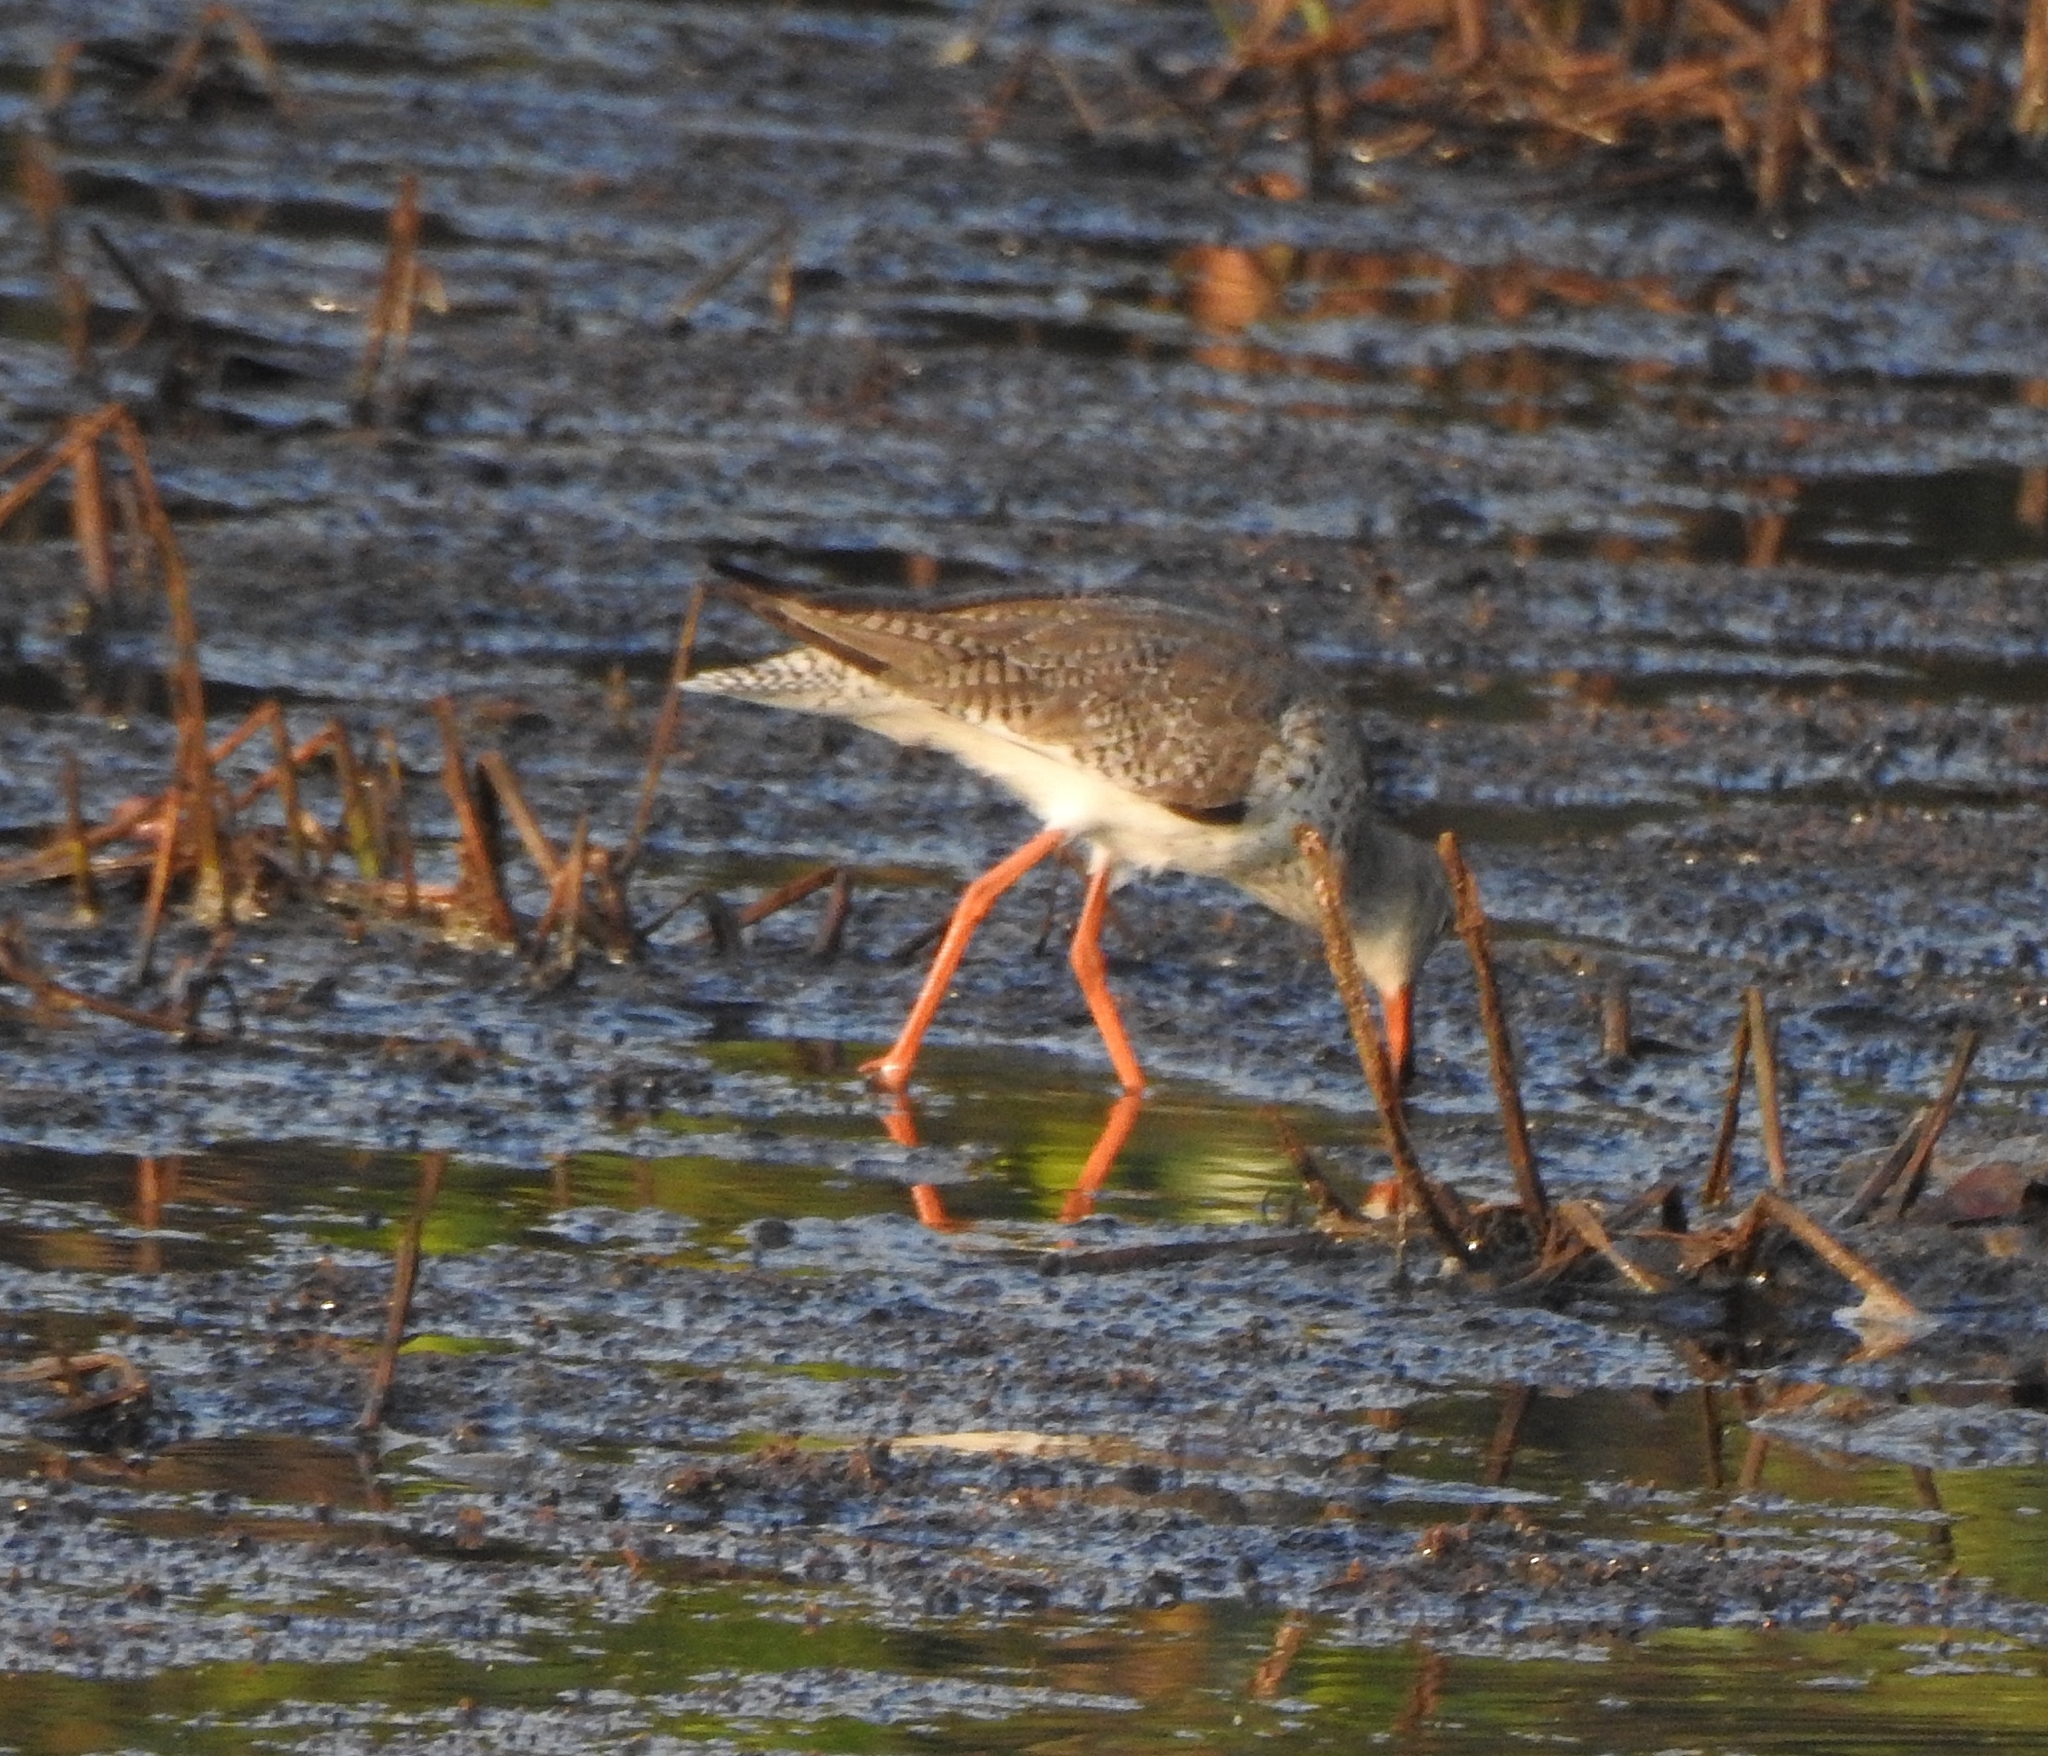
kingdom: Animalia
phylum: Chordata
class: Aves
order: Charadriiformes
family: Scolopacidae
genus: Tringa
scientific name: Tringa totanus
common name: Common redshank
